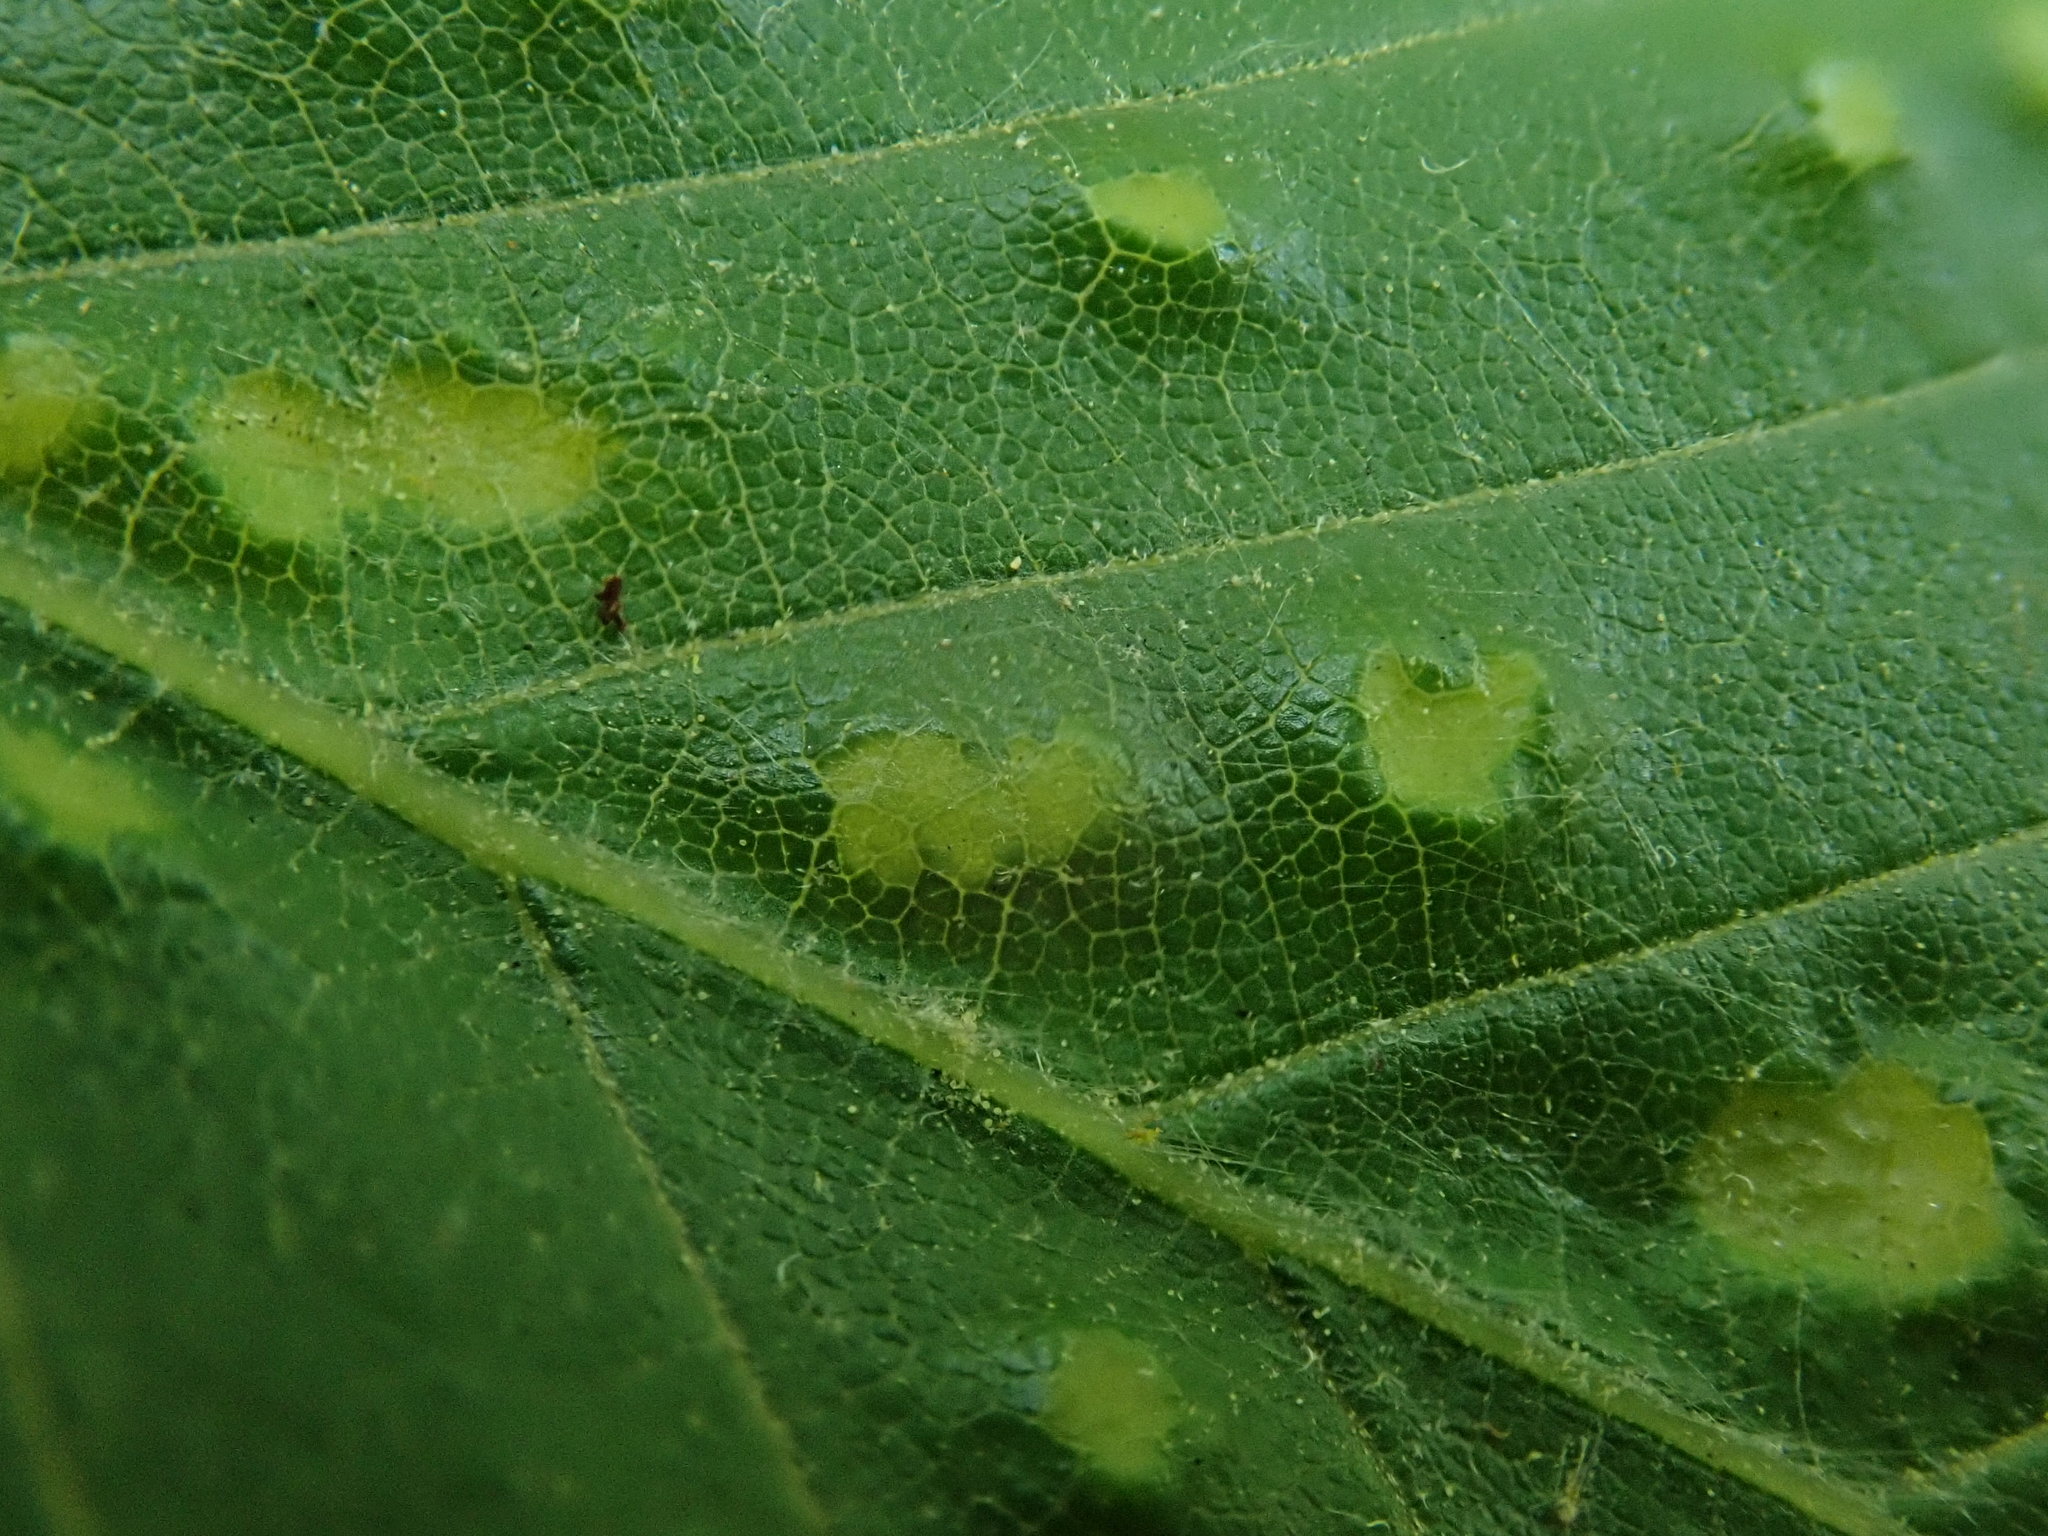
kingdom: Animalia
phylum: Arthropoda
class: Arachnida
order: Trombidiformes
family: Eriophyidae
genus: Acalitus
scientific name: Acalitus
